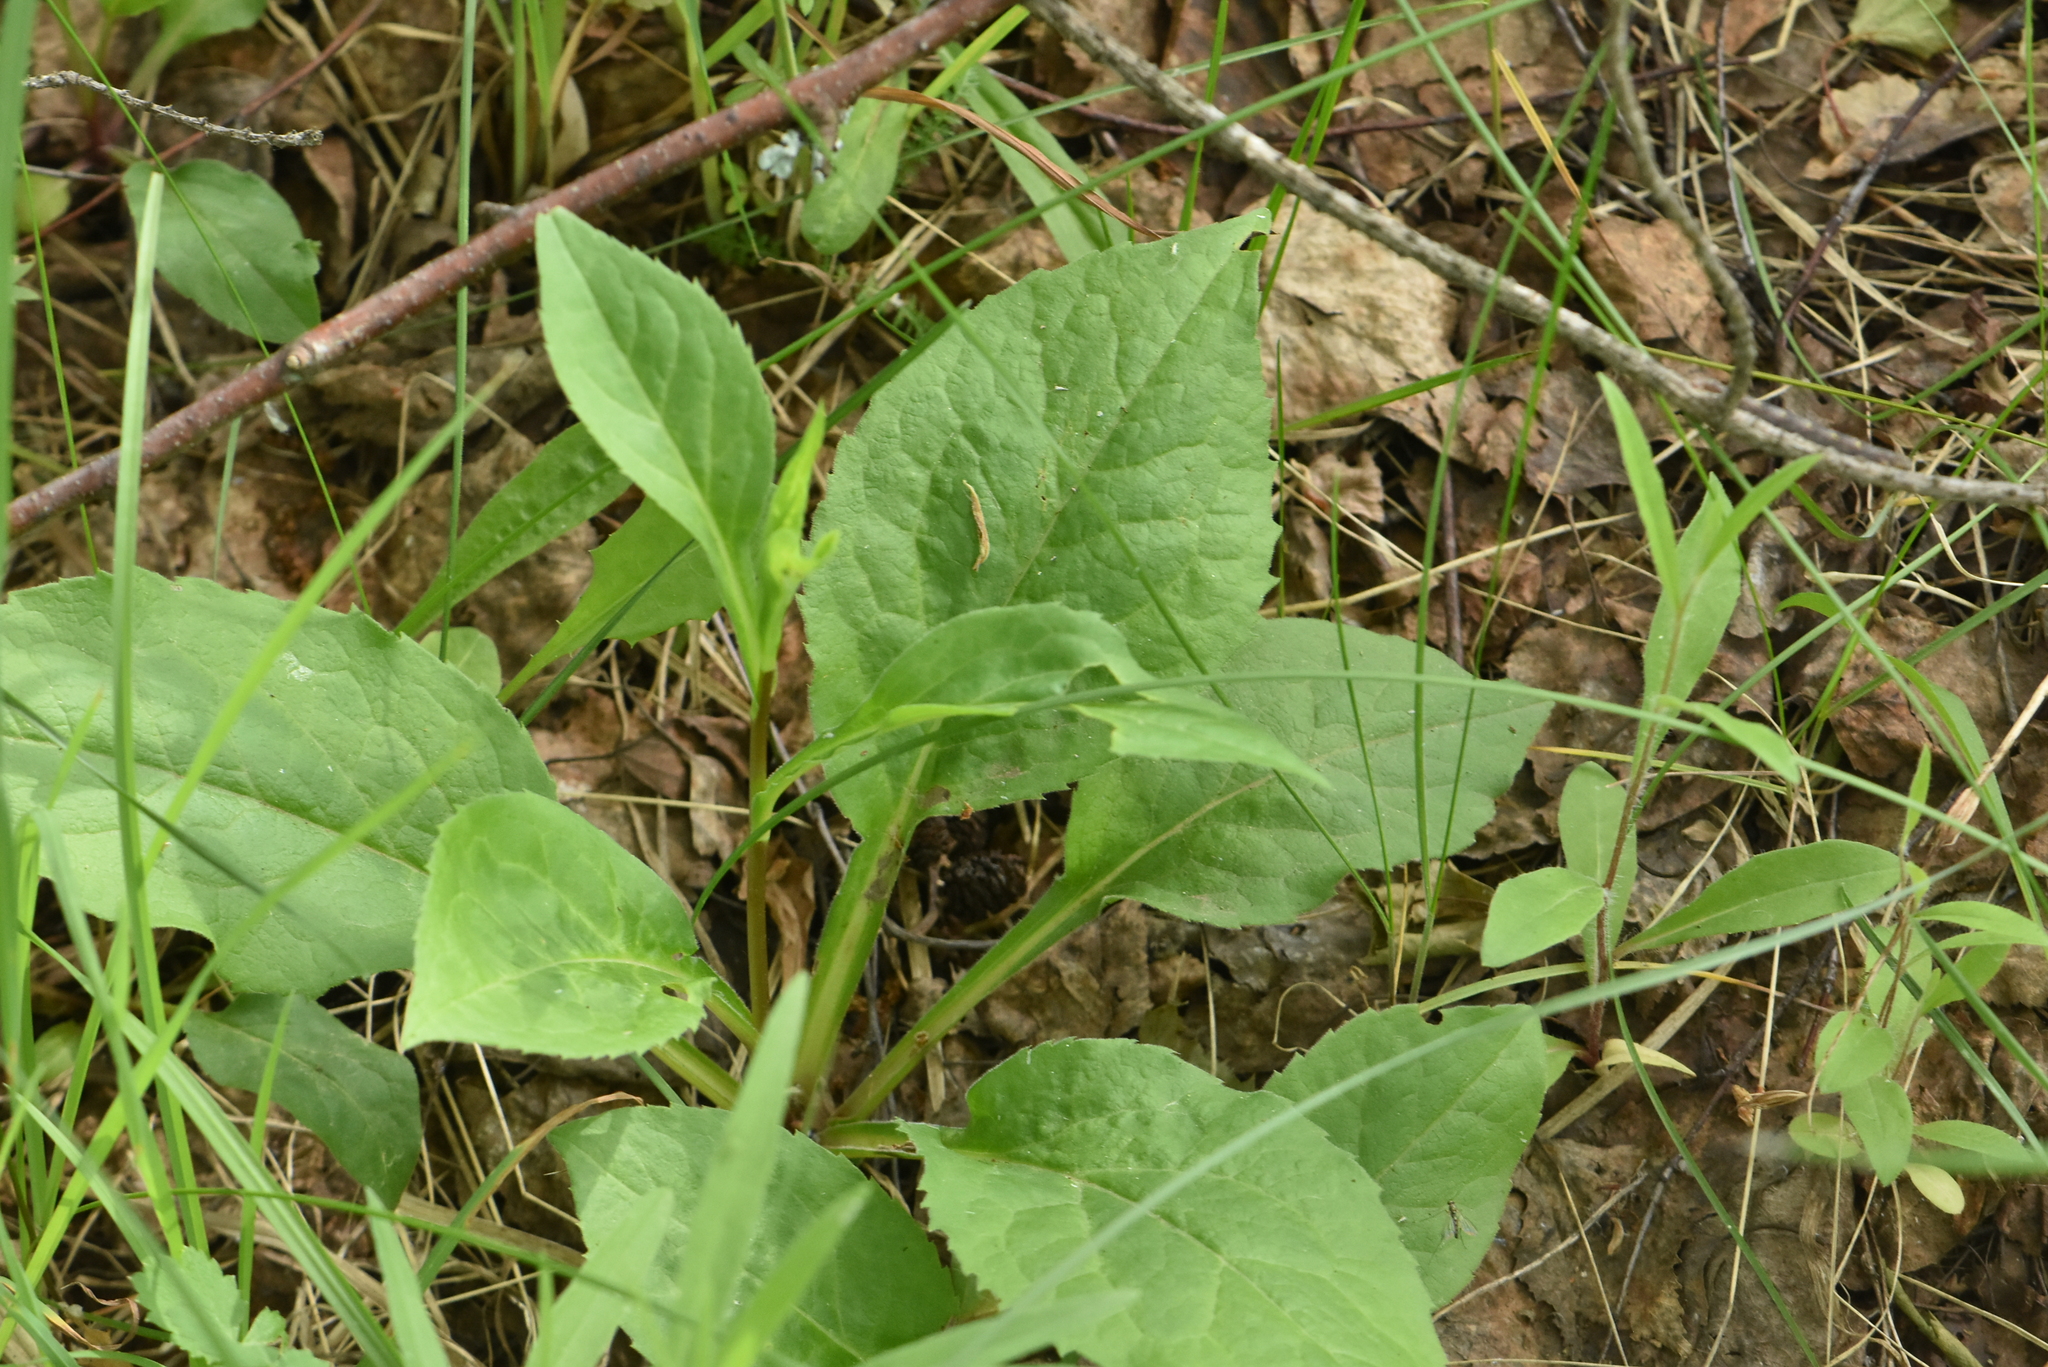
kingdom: Plantae
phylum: Tracheophyta
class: Magnoliopsida
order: Asterales
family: Asteraceae
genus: Solidago
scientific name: Solidago virgaurea
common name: Goldenrod
